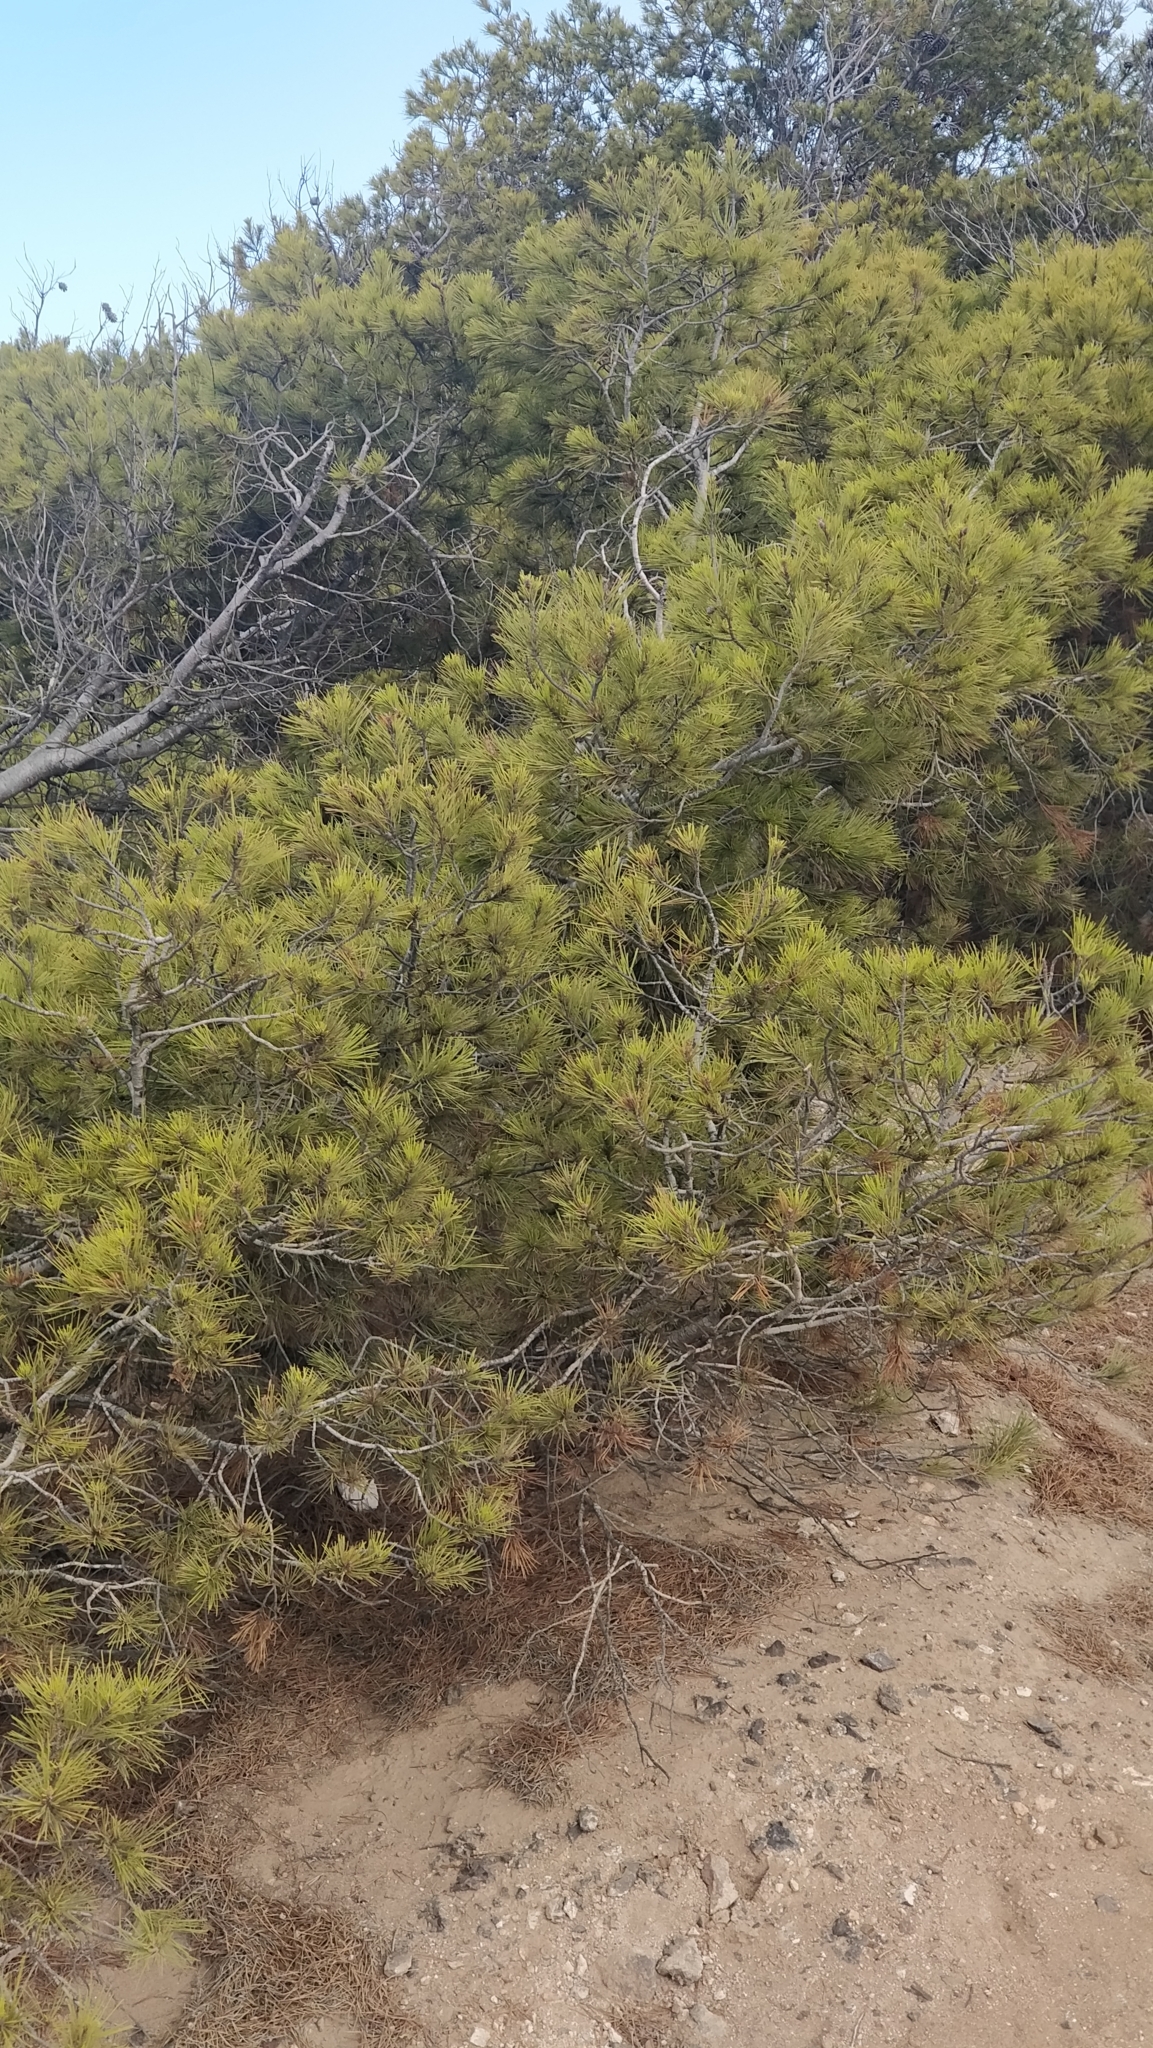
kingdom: Plantae
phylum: Tracheophyta
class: Pinopsida
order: Pinales
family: Pinaceae
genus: Pinus
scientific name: Pinus halepensis
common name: Aleppo pine
